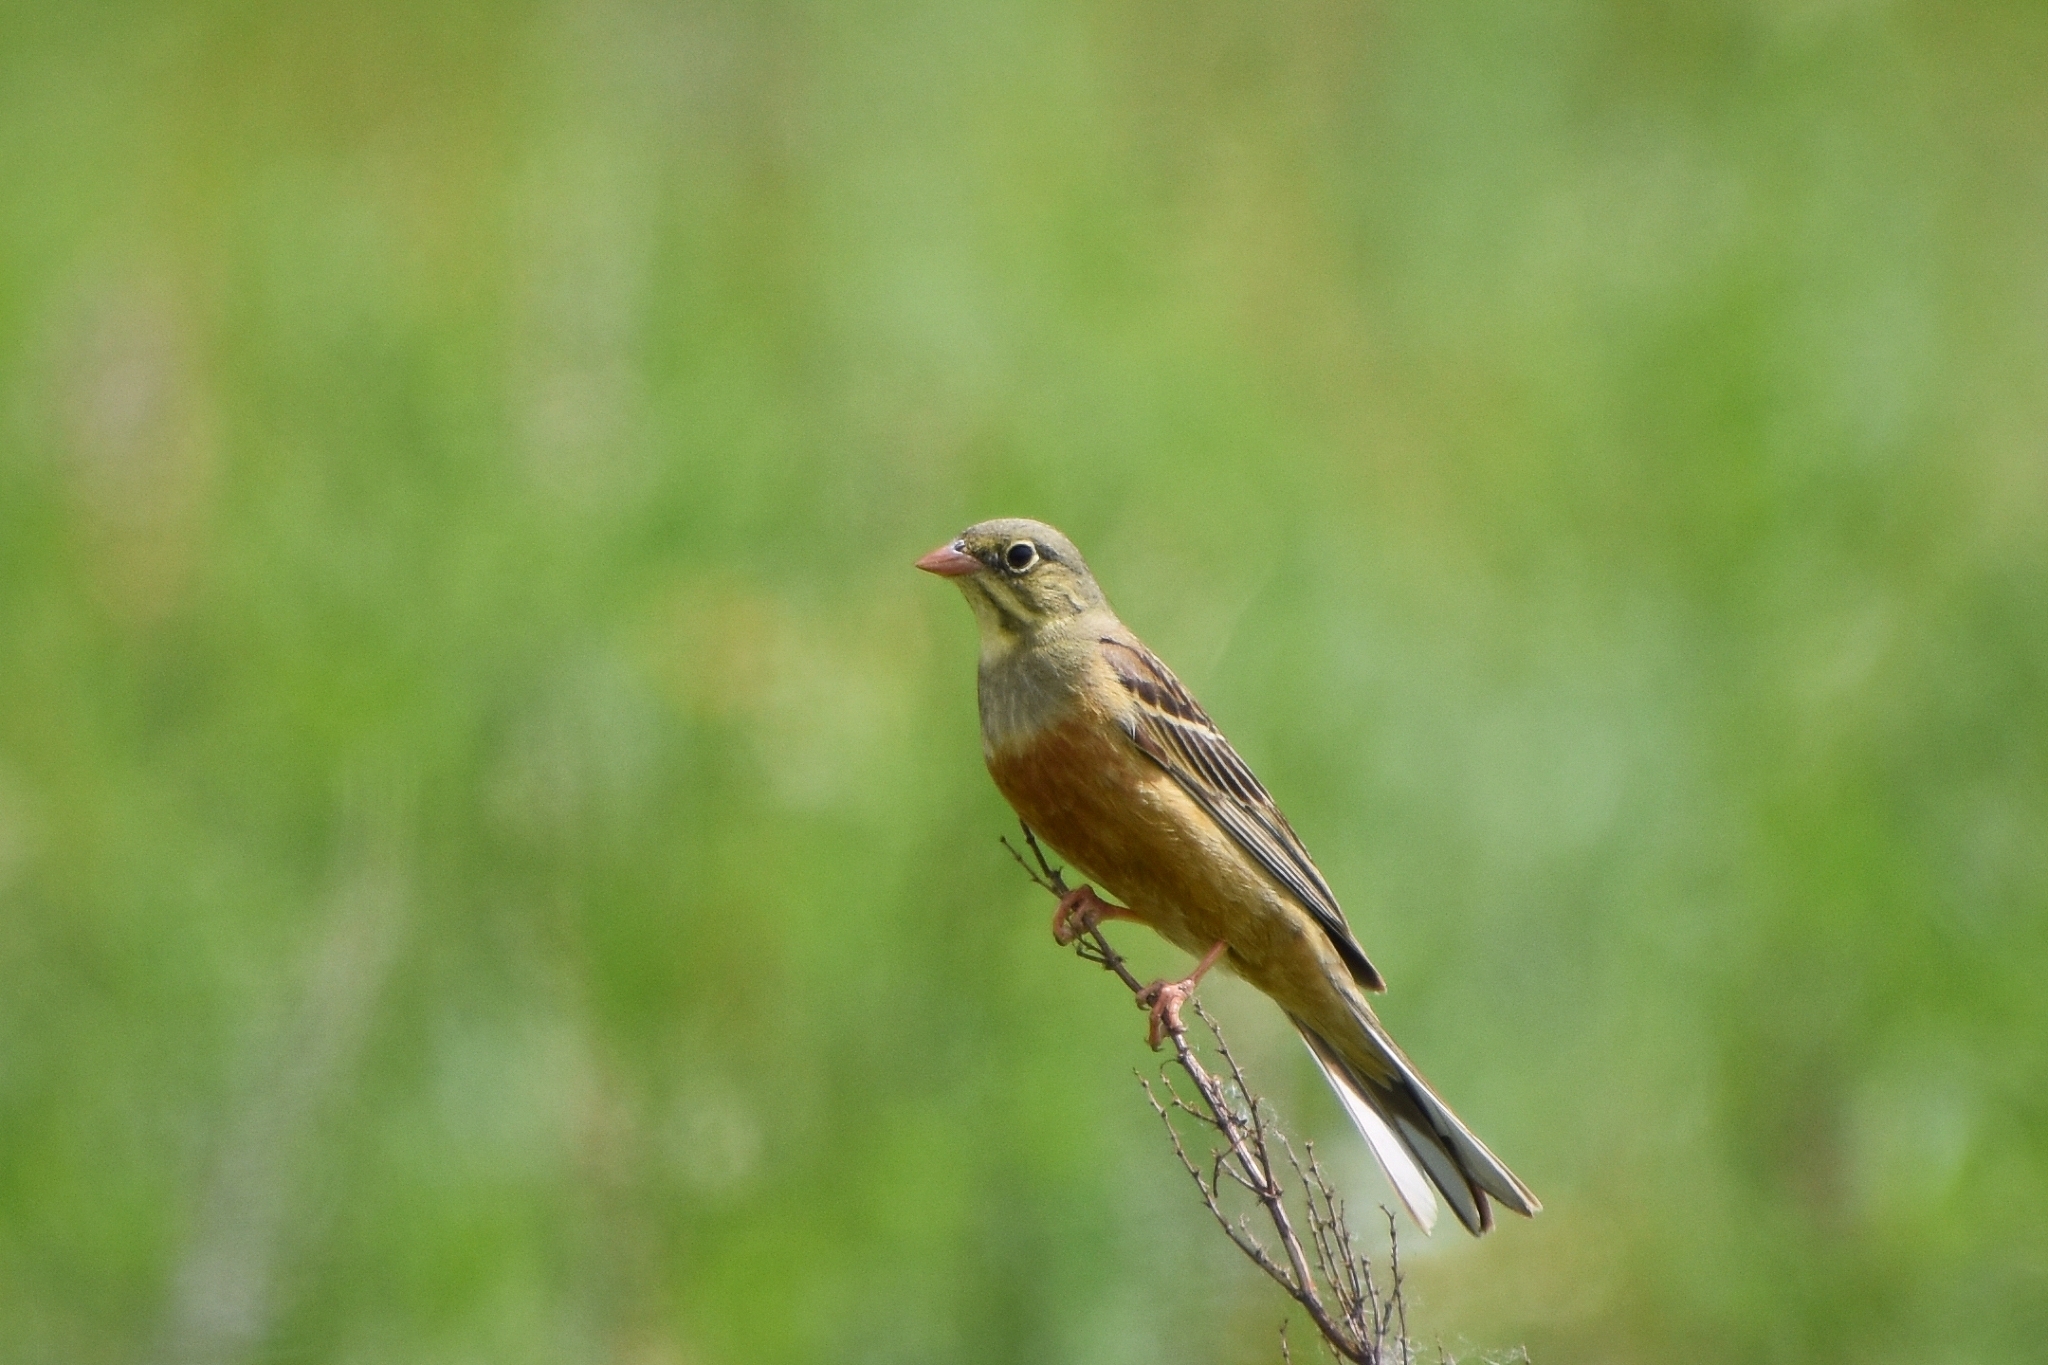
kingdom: Animalia
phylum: Chordata
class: Aves
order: Passeriformes
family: Emberizidae
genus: Emberiza
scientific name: Emberiza hortulana
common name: Ortolan bunting
